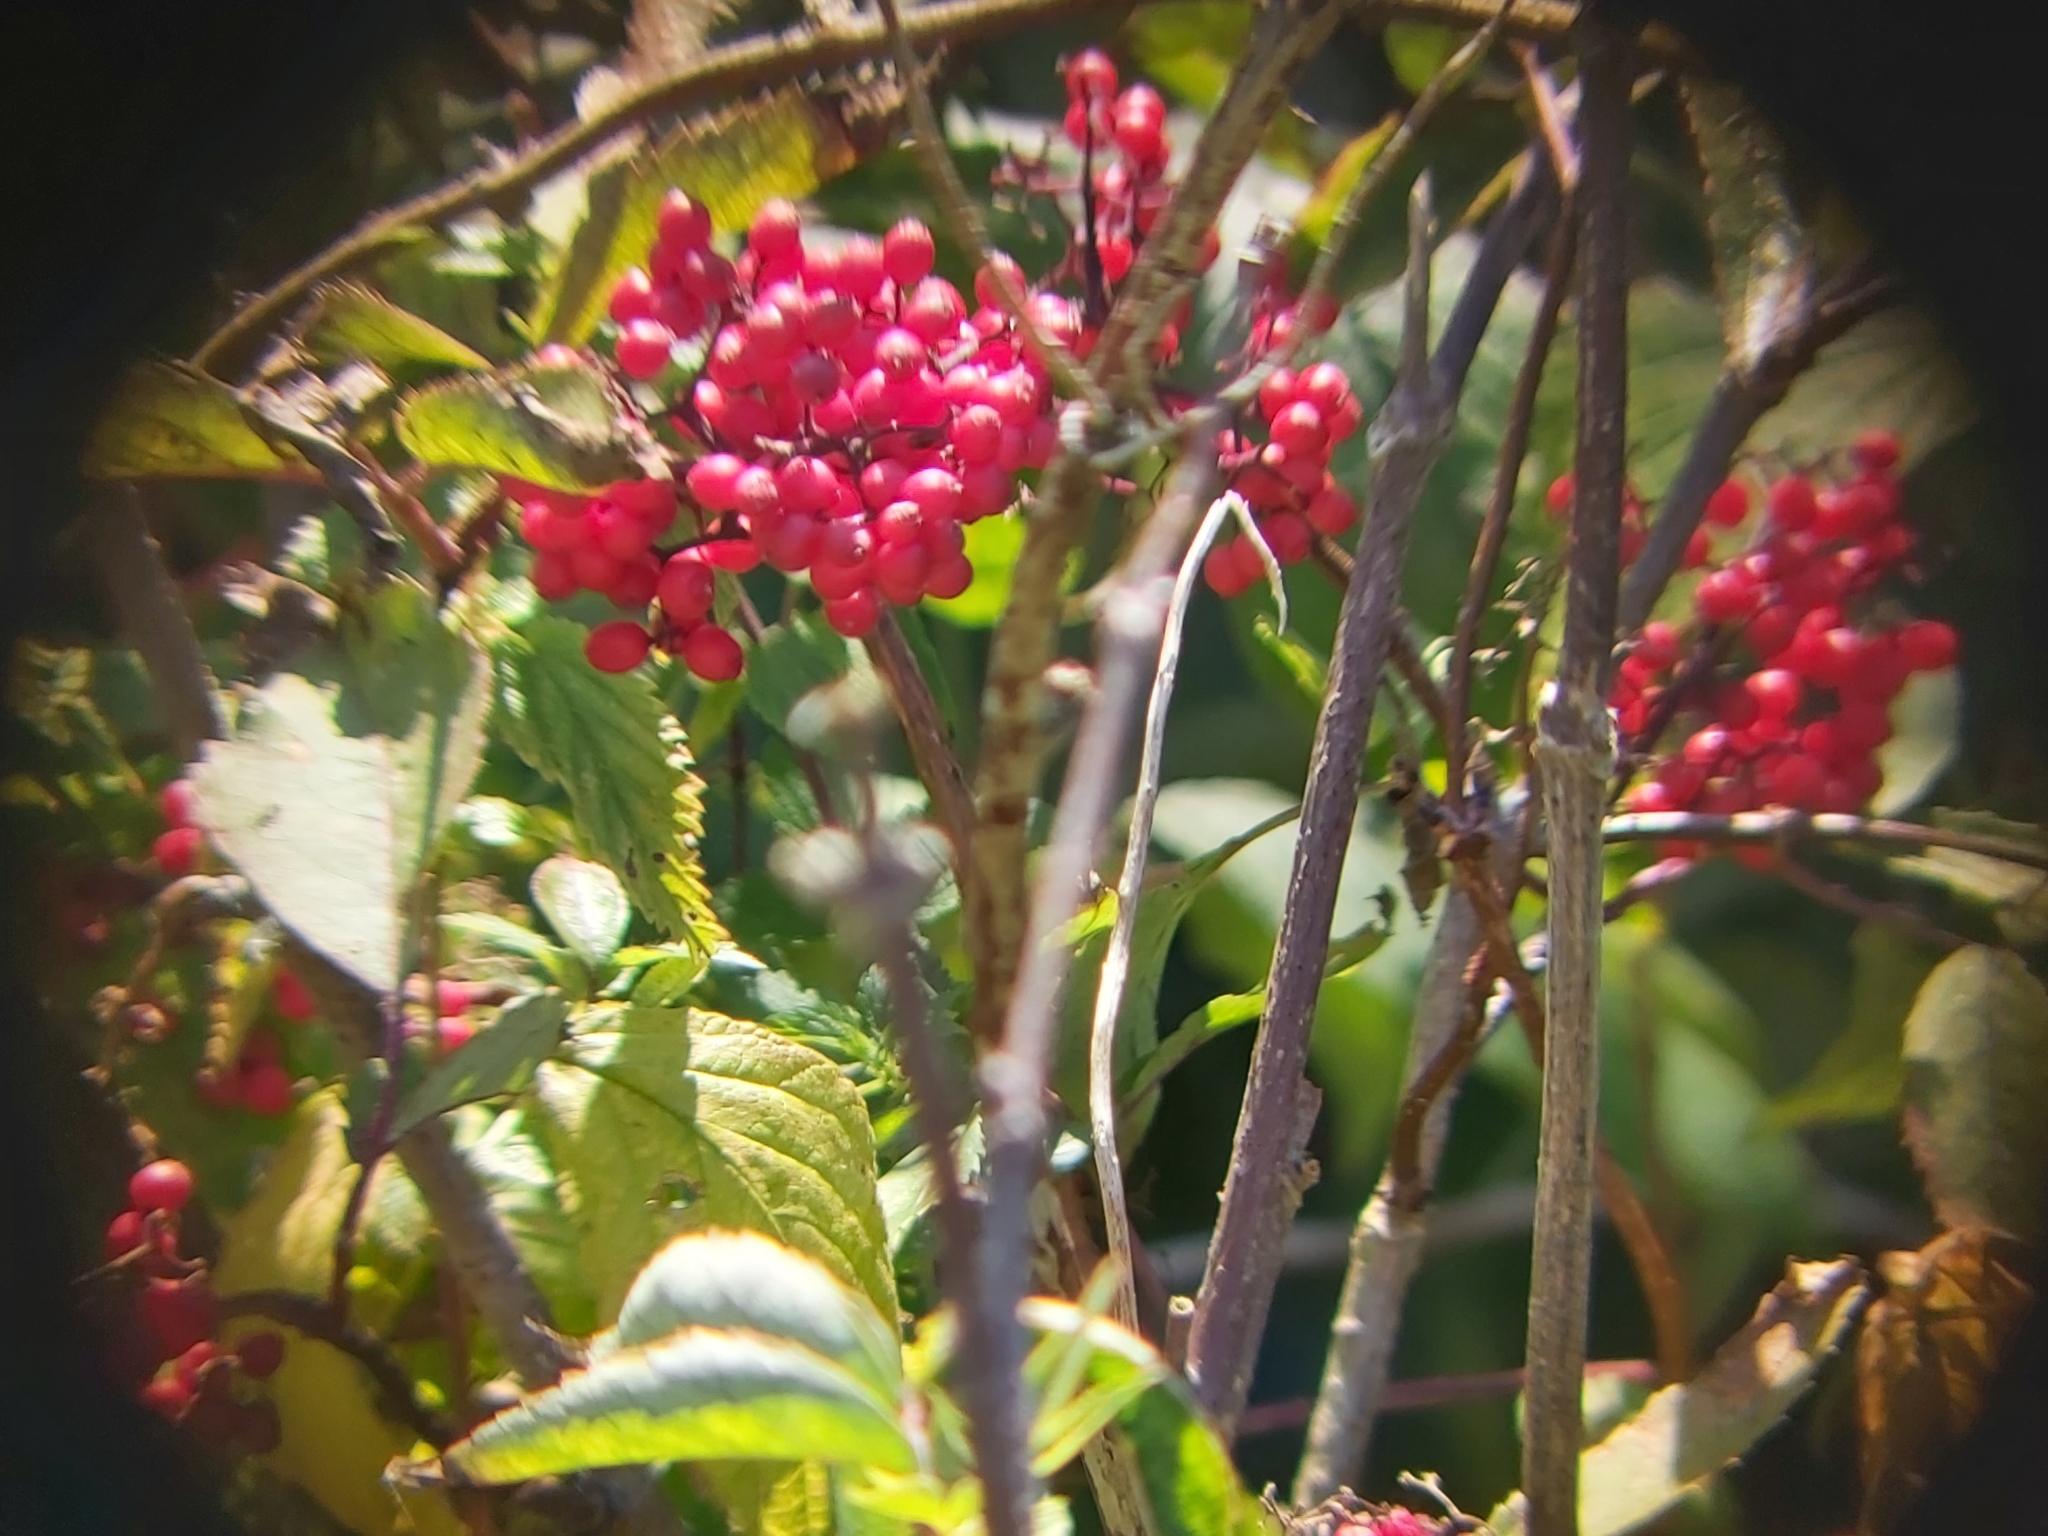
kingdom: Plantae
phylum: Tracheophyta
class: Magnoliopsida
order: Dipsacales
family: Viburnaceae
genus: Sambucus
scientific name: Sambucus racemosa
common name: Red-berried elder
